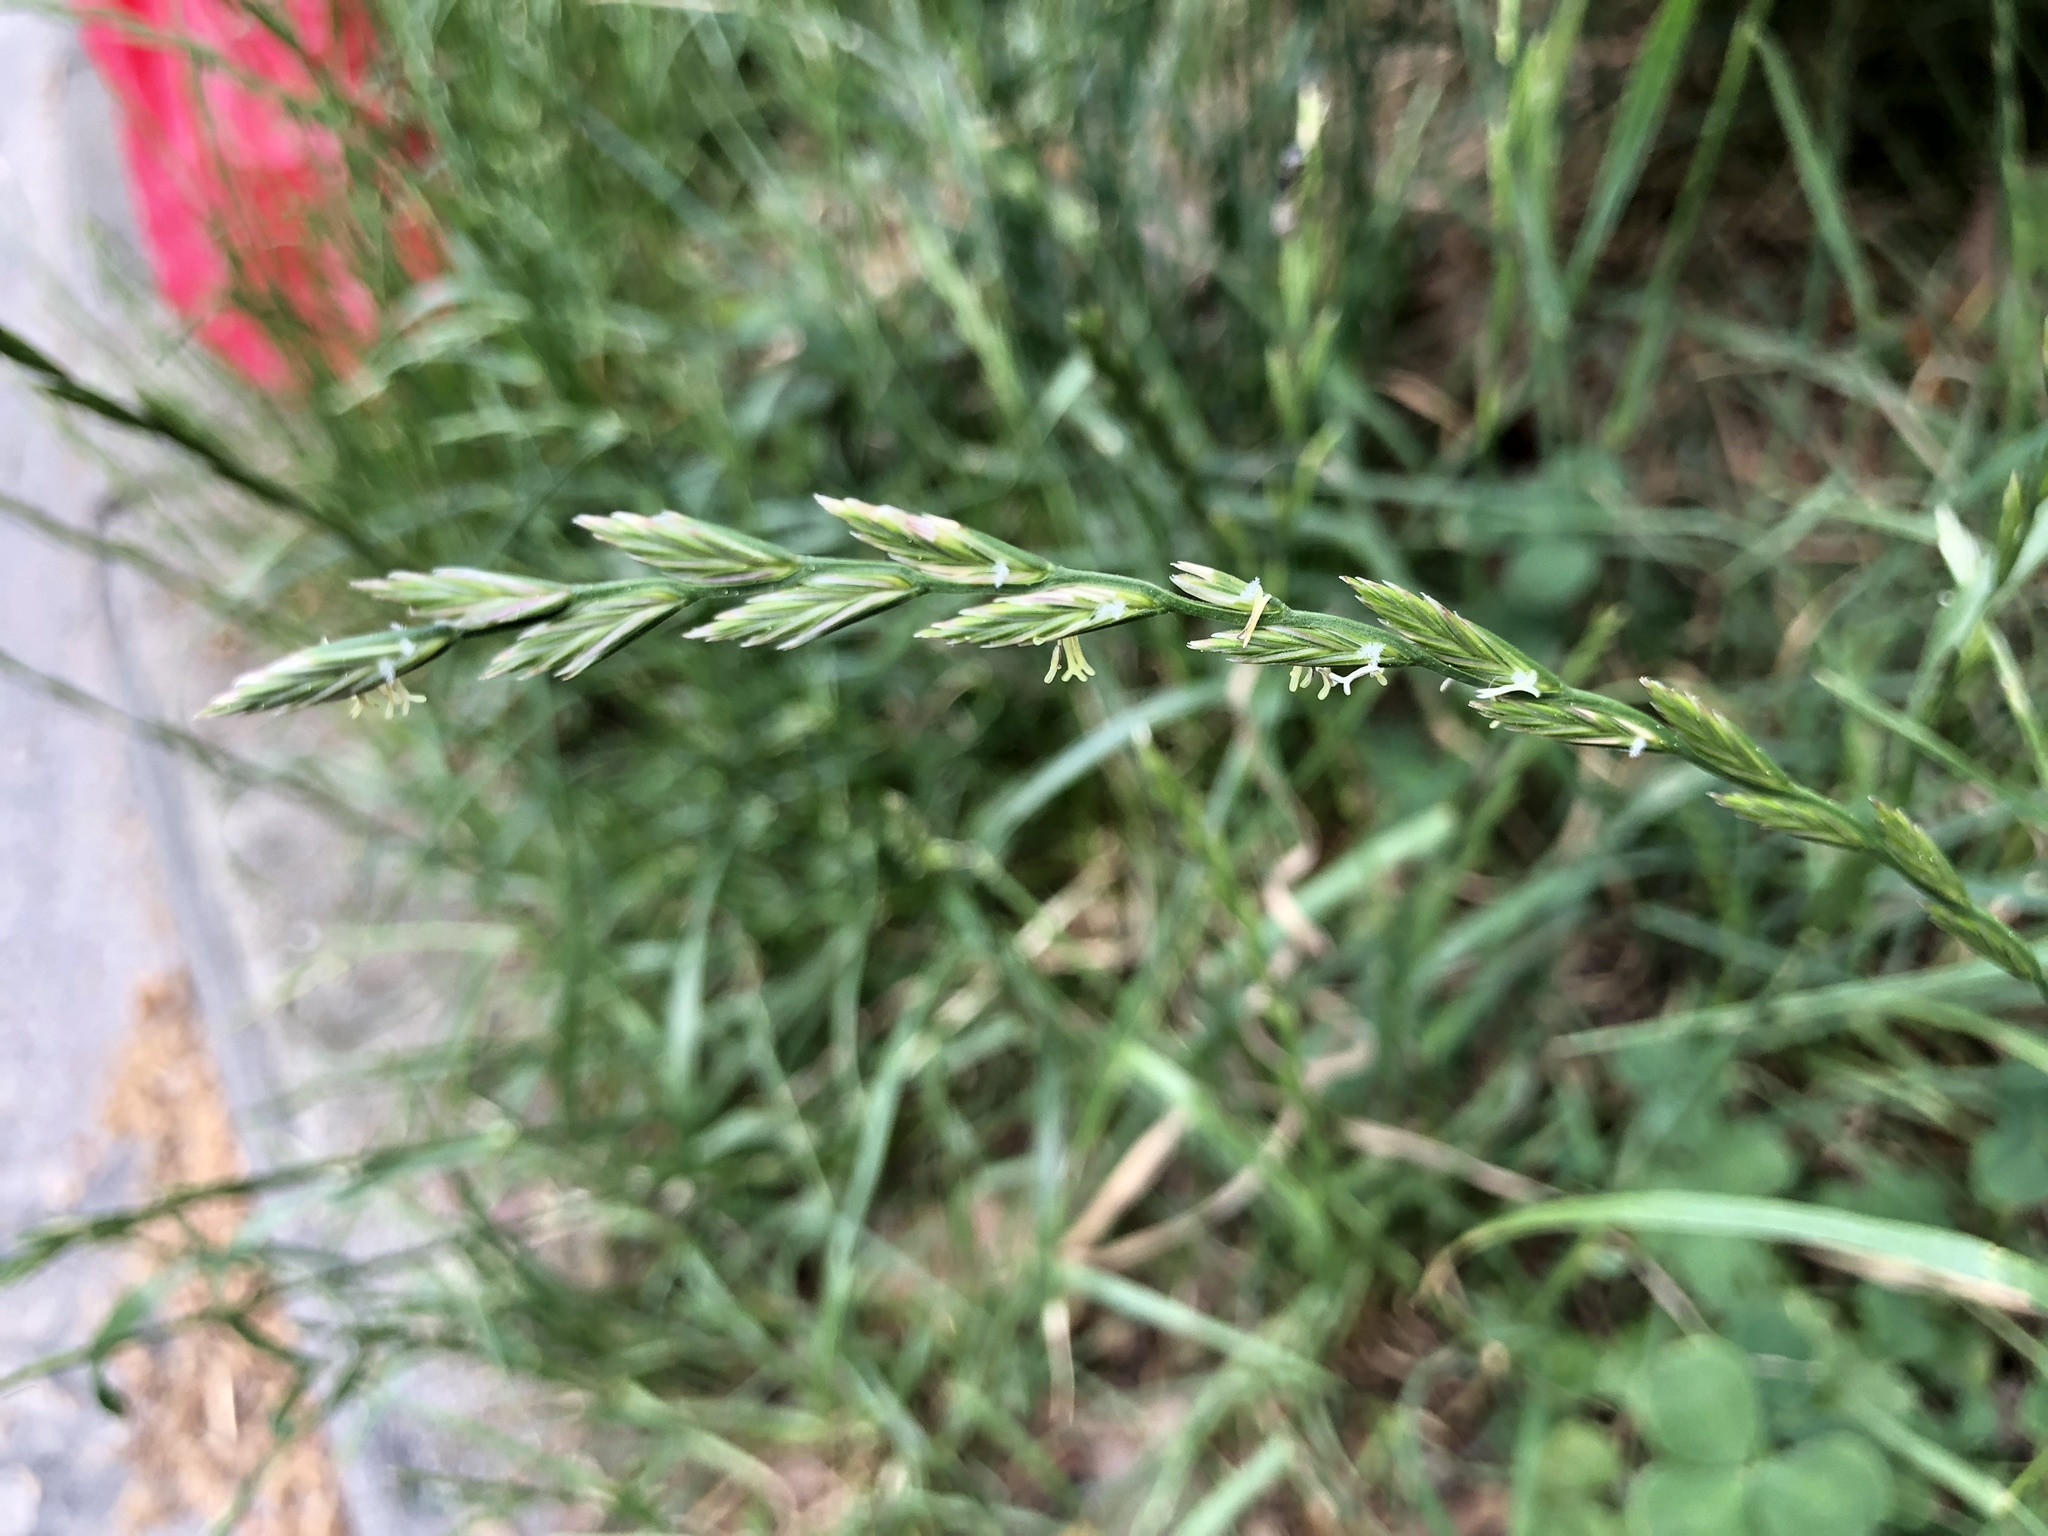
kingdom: Plantae
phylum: Tracheophyta
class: Liliopsida
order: Poales
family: Poaceae
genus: Lolium
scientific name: Lolium perenne
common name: Perennial ryegrass
